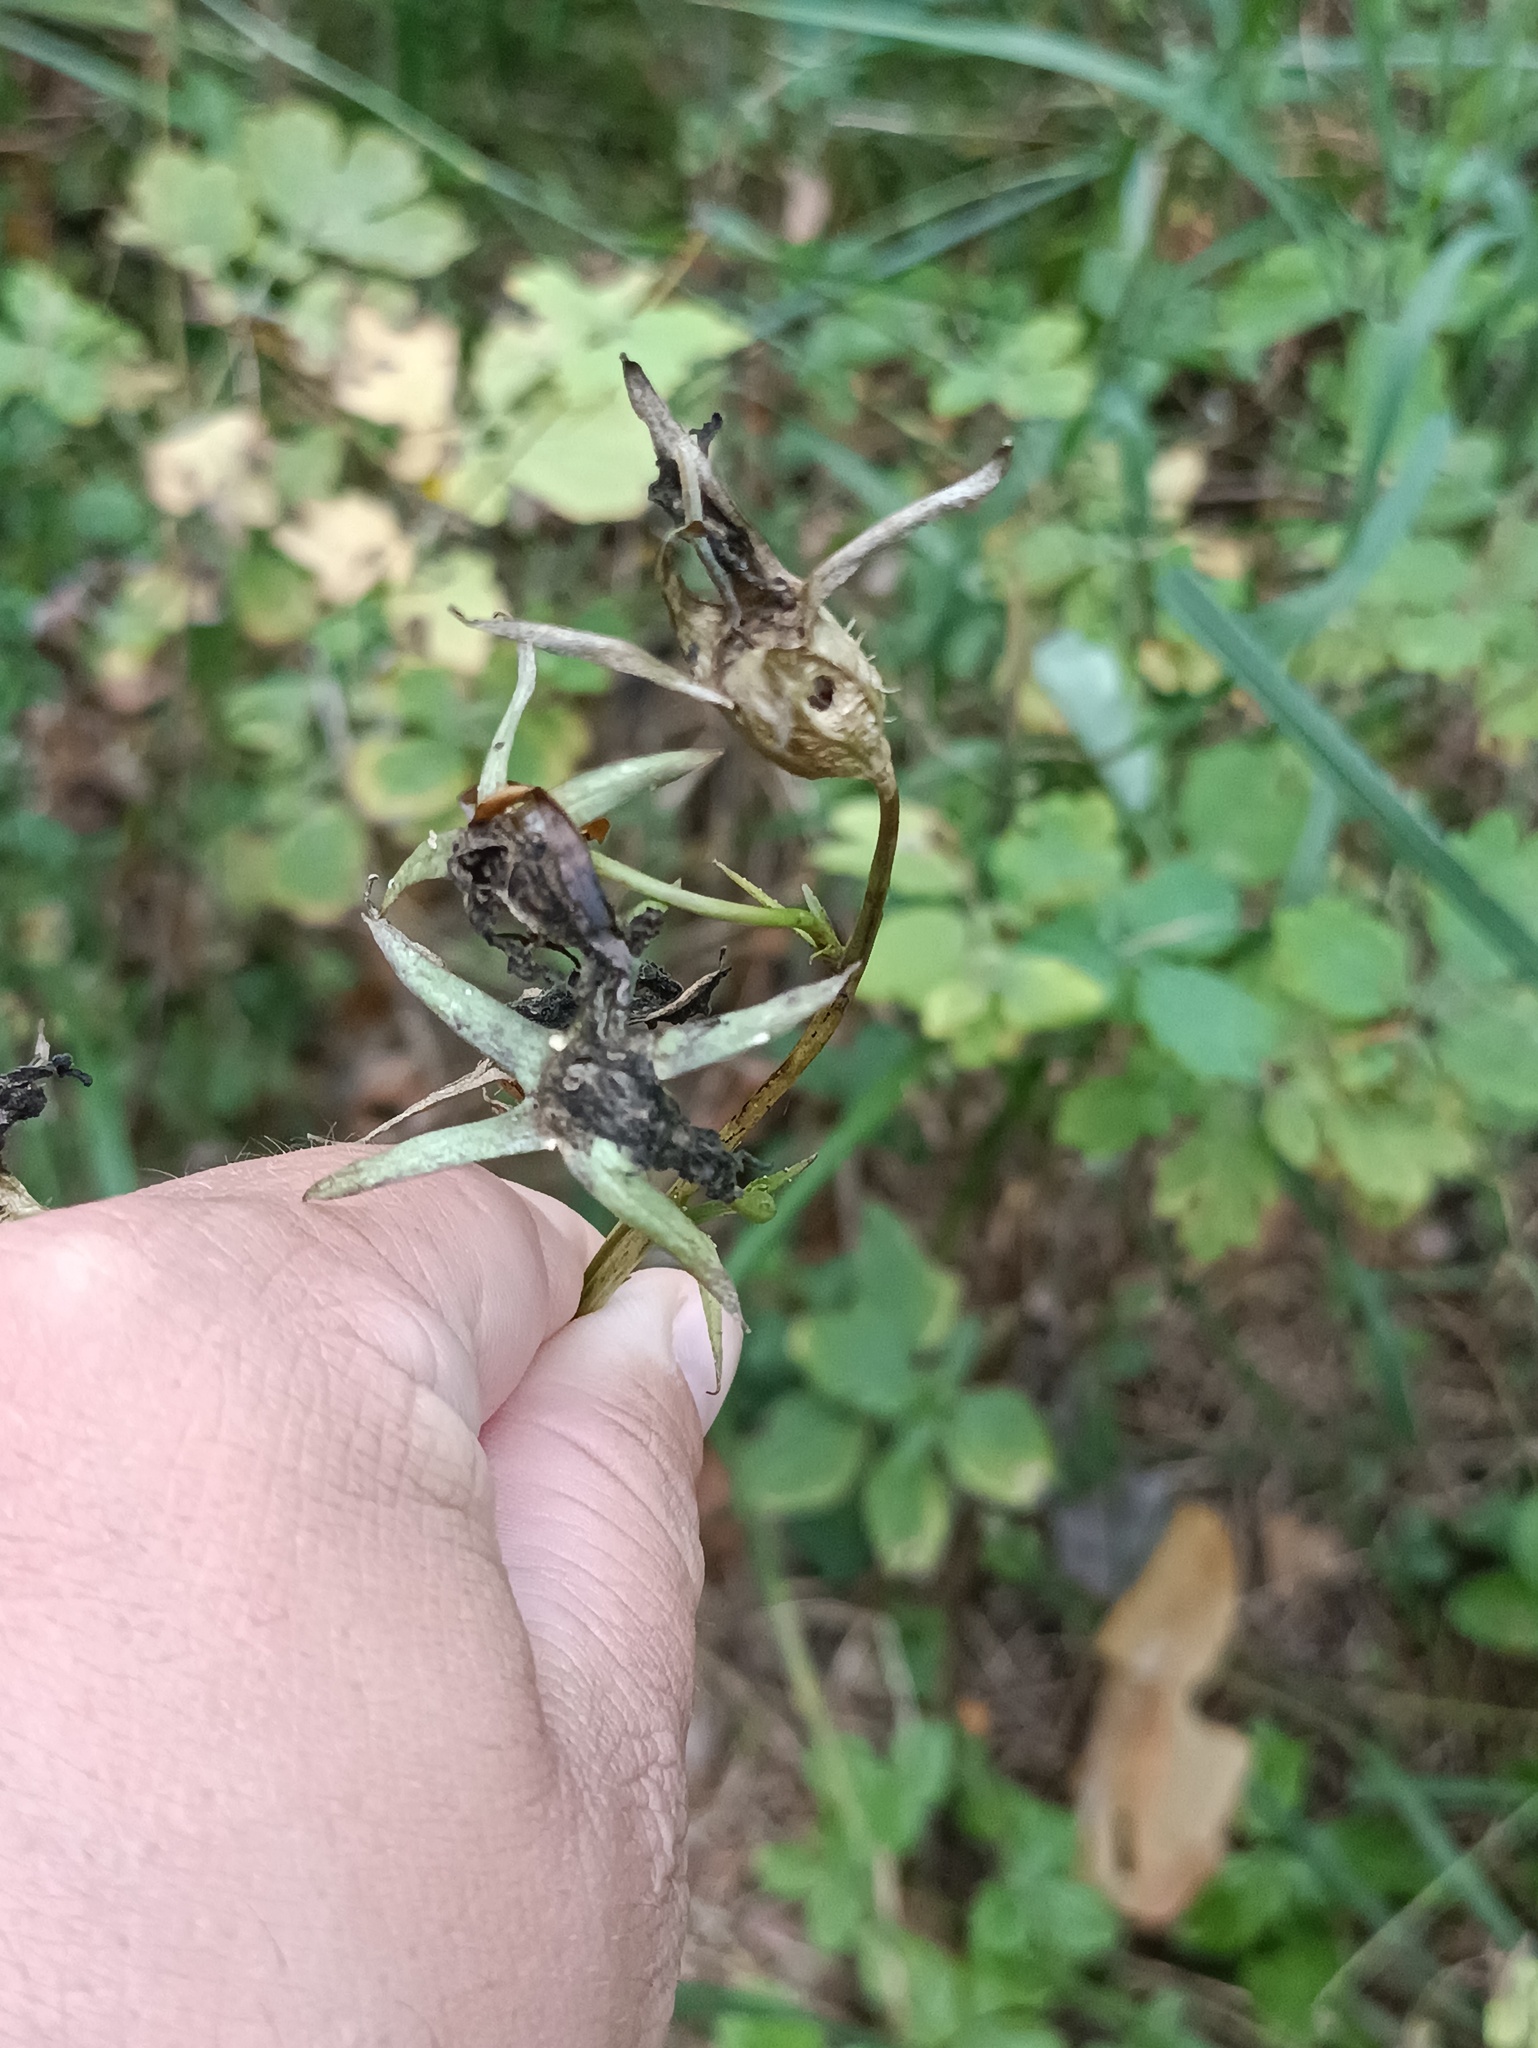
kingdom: Plantae
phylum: Tracheophyta
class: Magnoliopsida
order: Asterales
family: Campanulaceae
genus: Campanula
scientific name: Campanula persicifolia
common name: Peach-leaved bellflower
